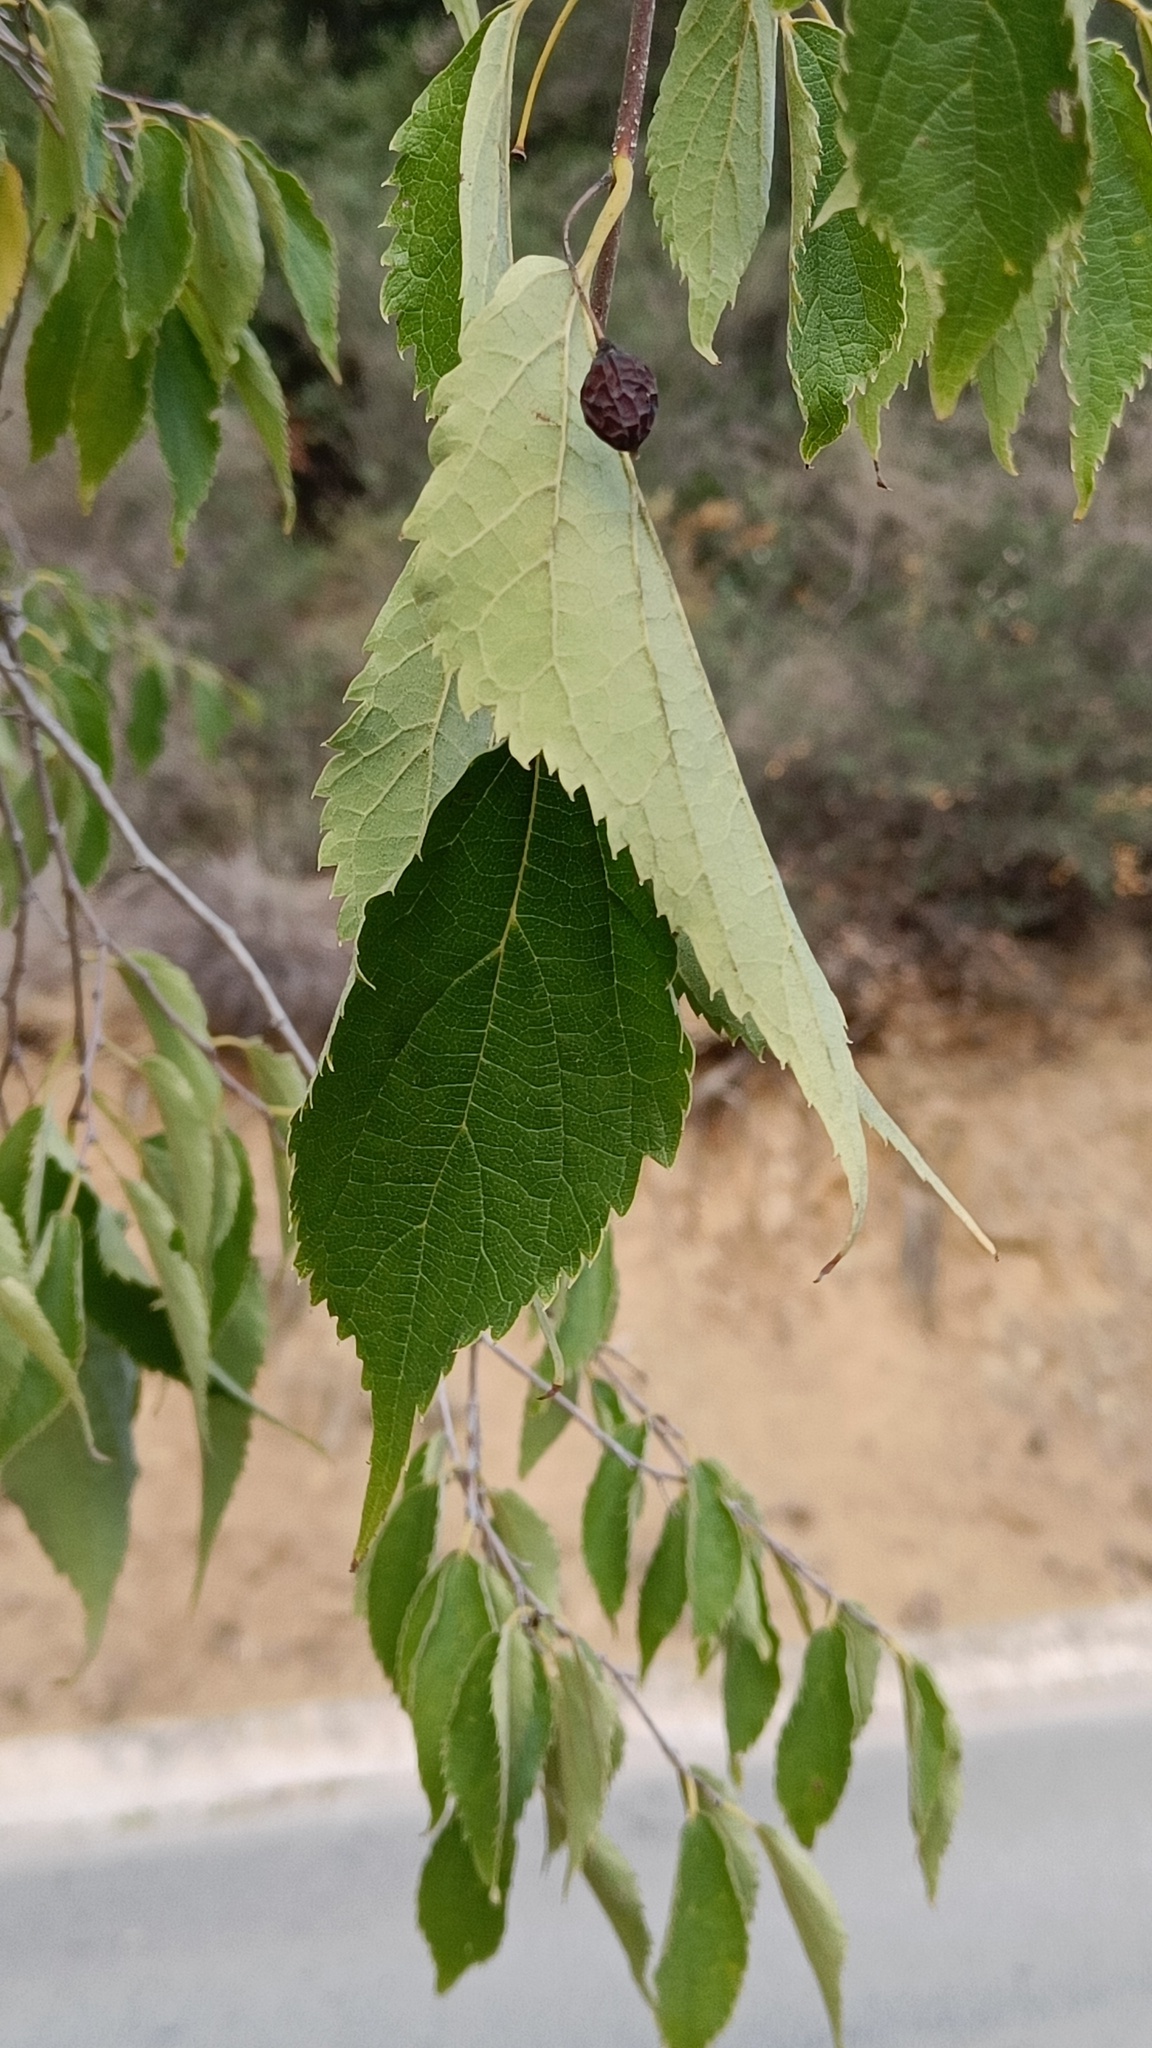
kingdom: Plantae
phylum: Tracheophyta
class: Magnoliopsida
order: Rosales
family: Cannabaceae
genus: Celtis
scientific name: Celtis australis
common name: European hackberry
